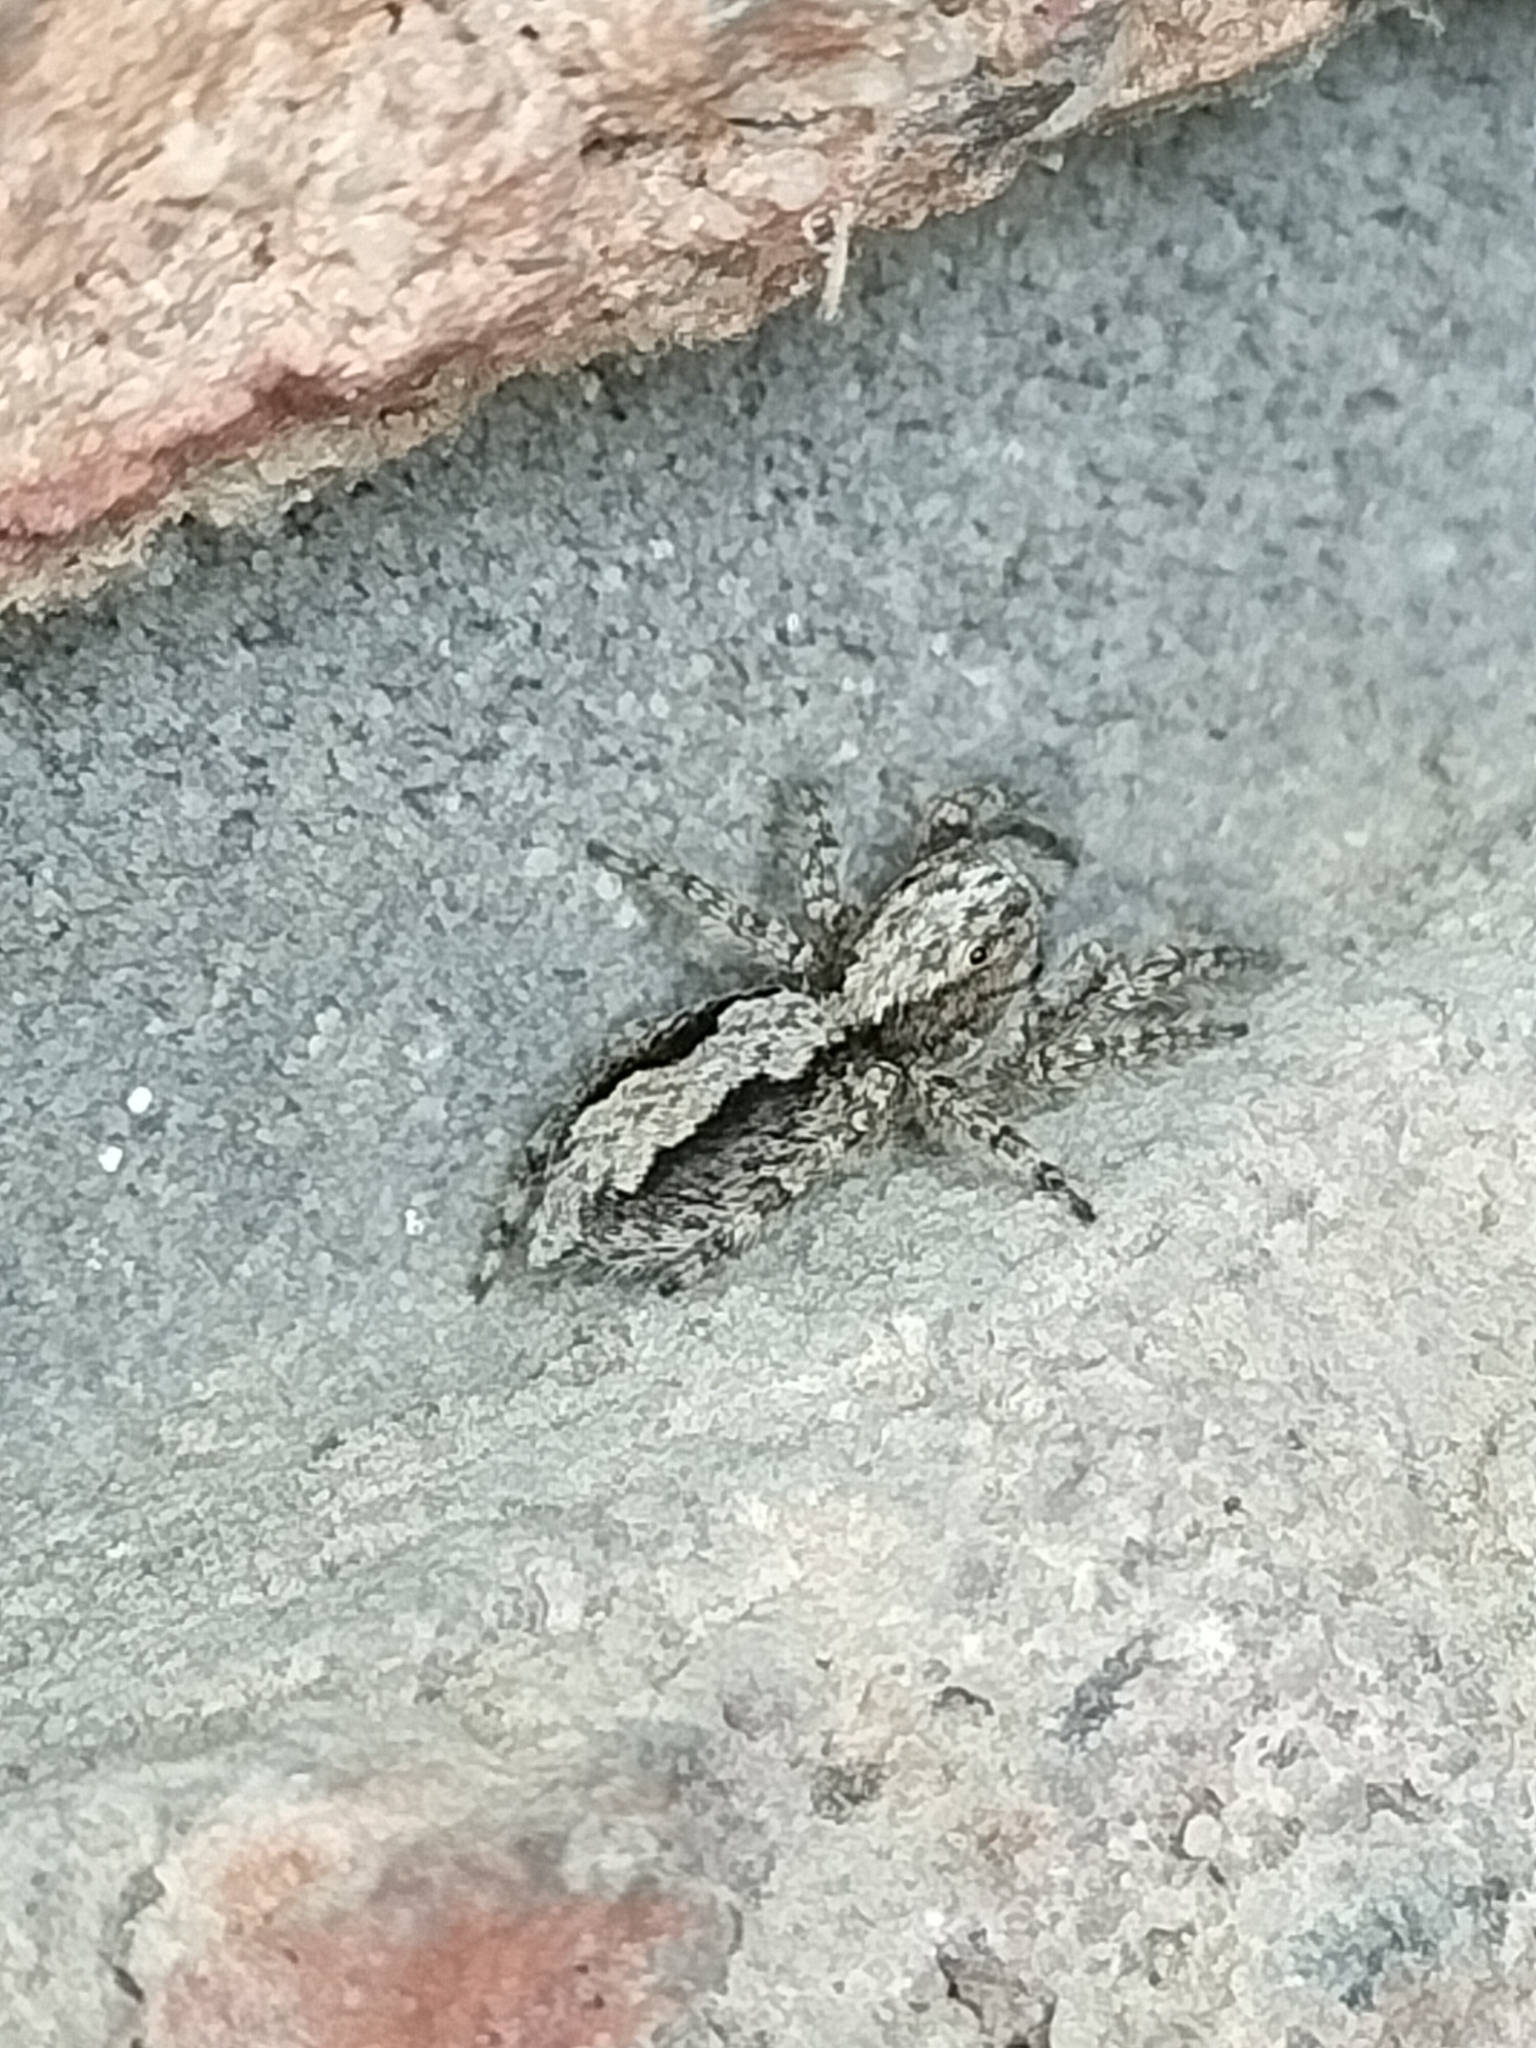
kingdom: Animalia
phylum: Arthropoda
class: Arachnida
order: Araneae
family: Salticidae
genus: Clynotis
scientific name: Clynotis severus
